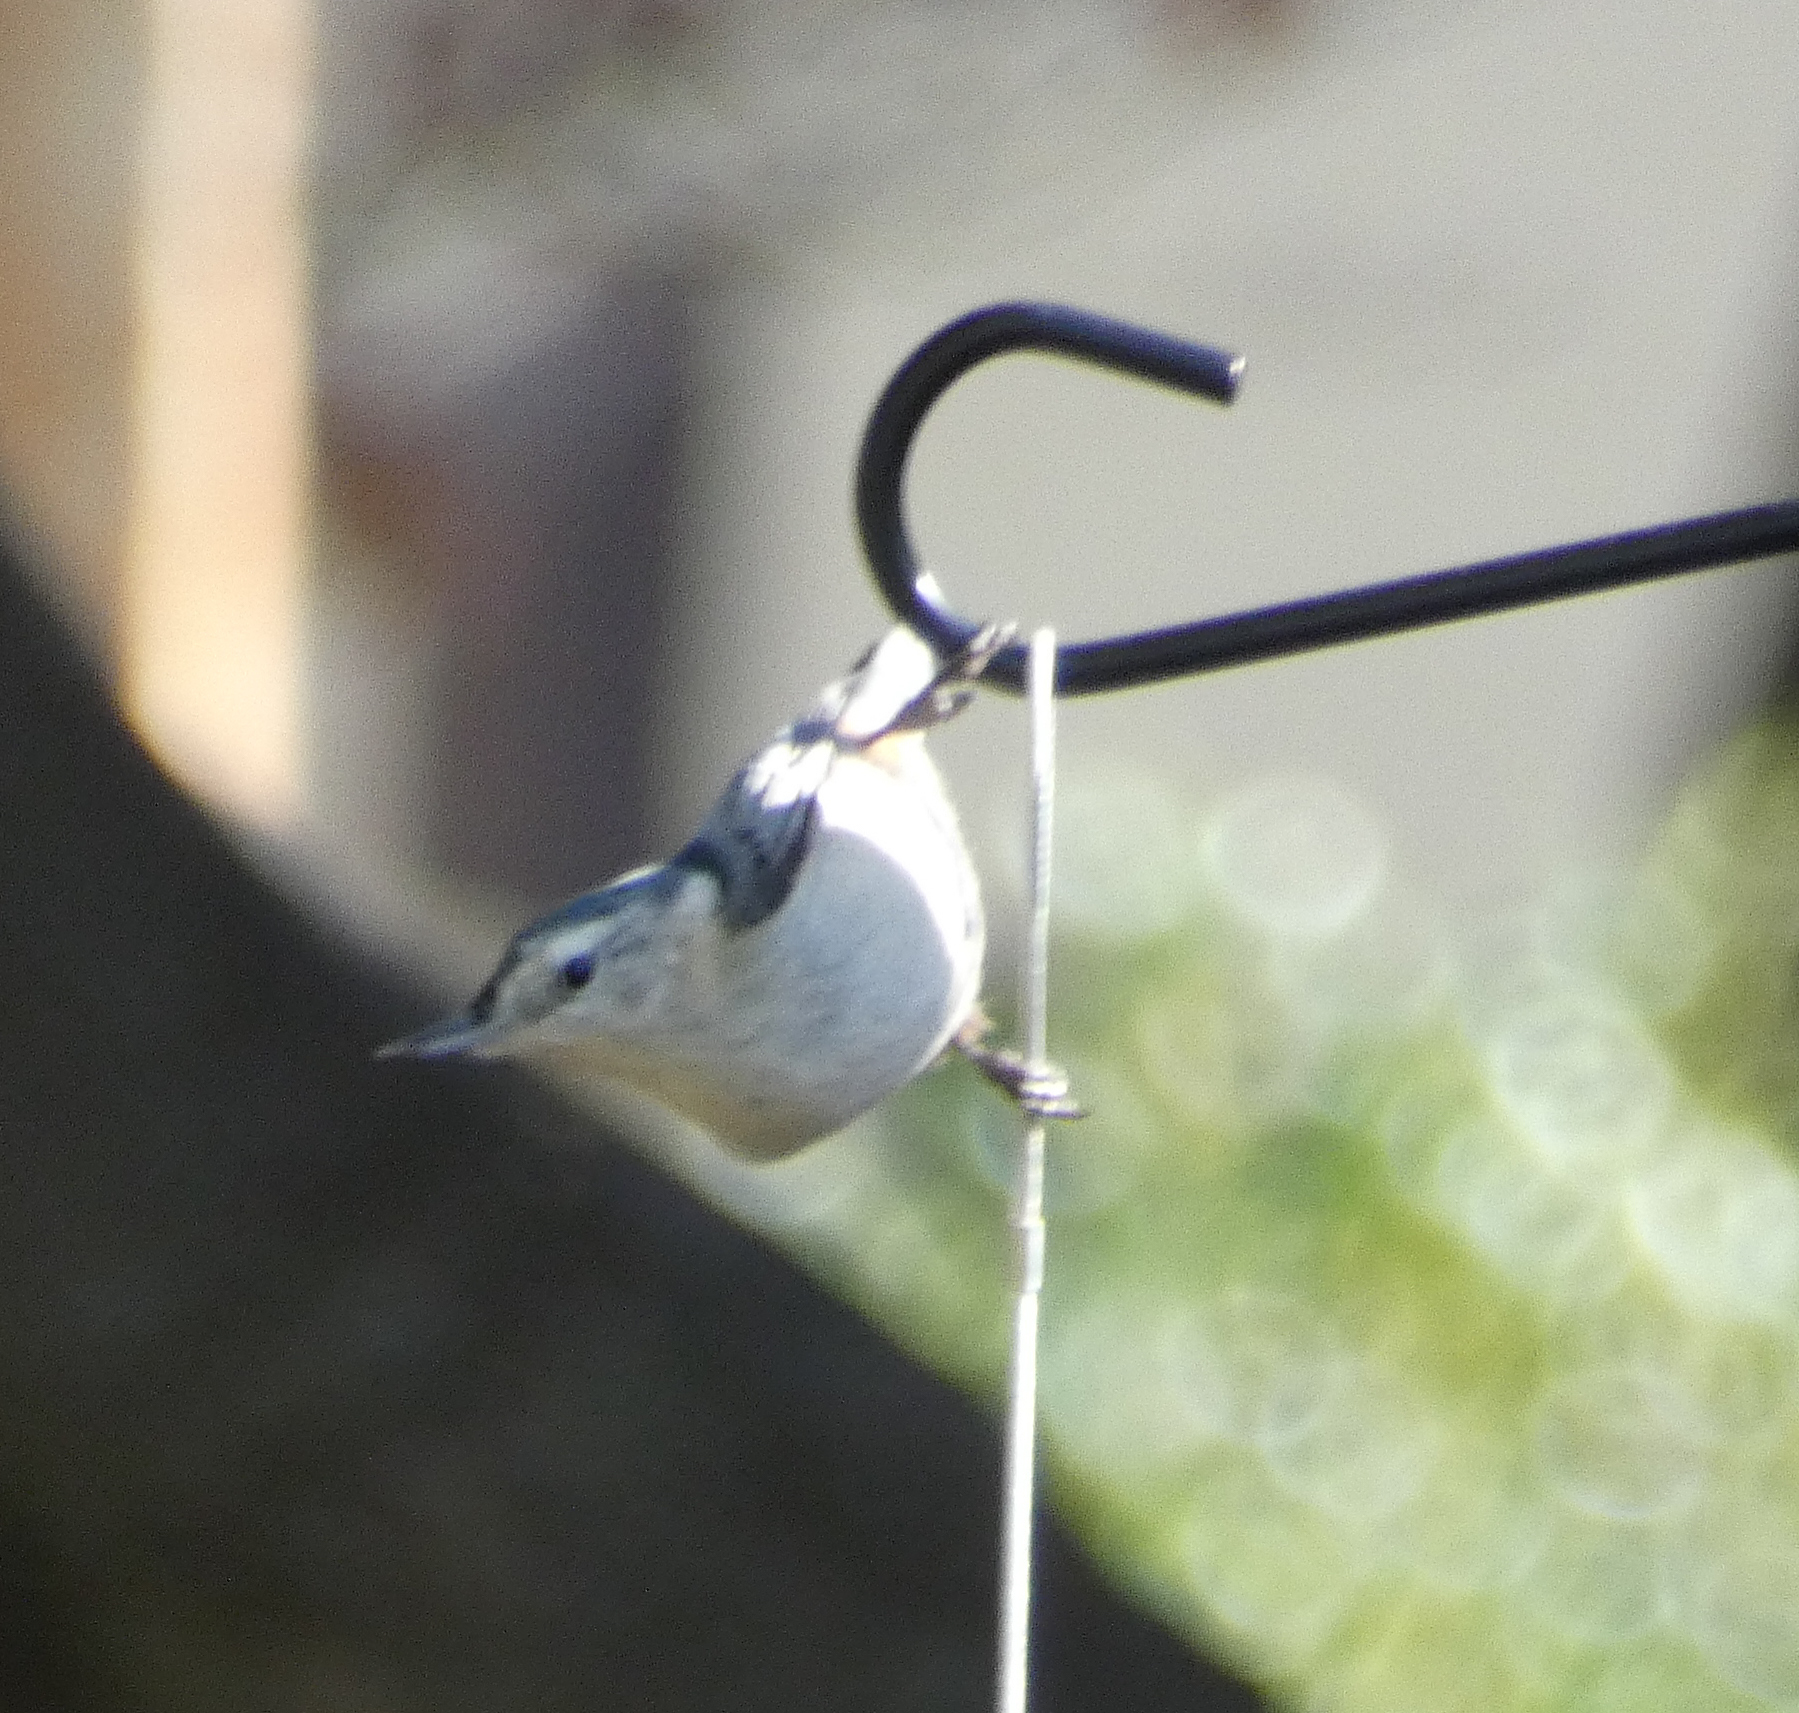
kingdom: Animalia
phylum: Chordata
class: Aves
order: Passeriformes
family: Sittidae
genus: Sitta
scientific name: Sitta carolinensis
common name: White-breasted nuthatch
